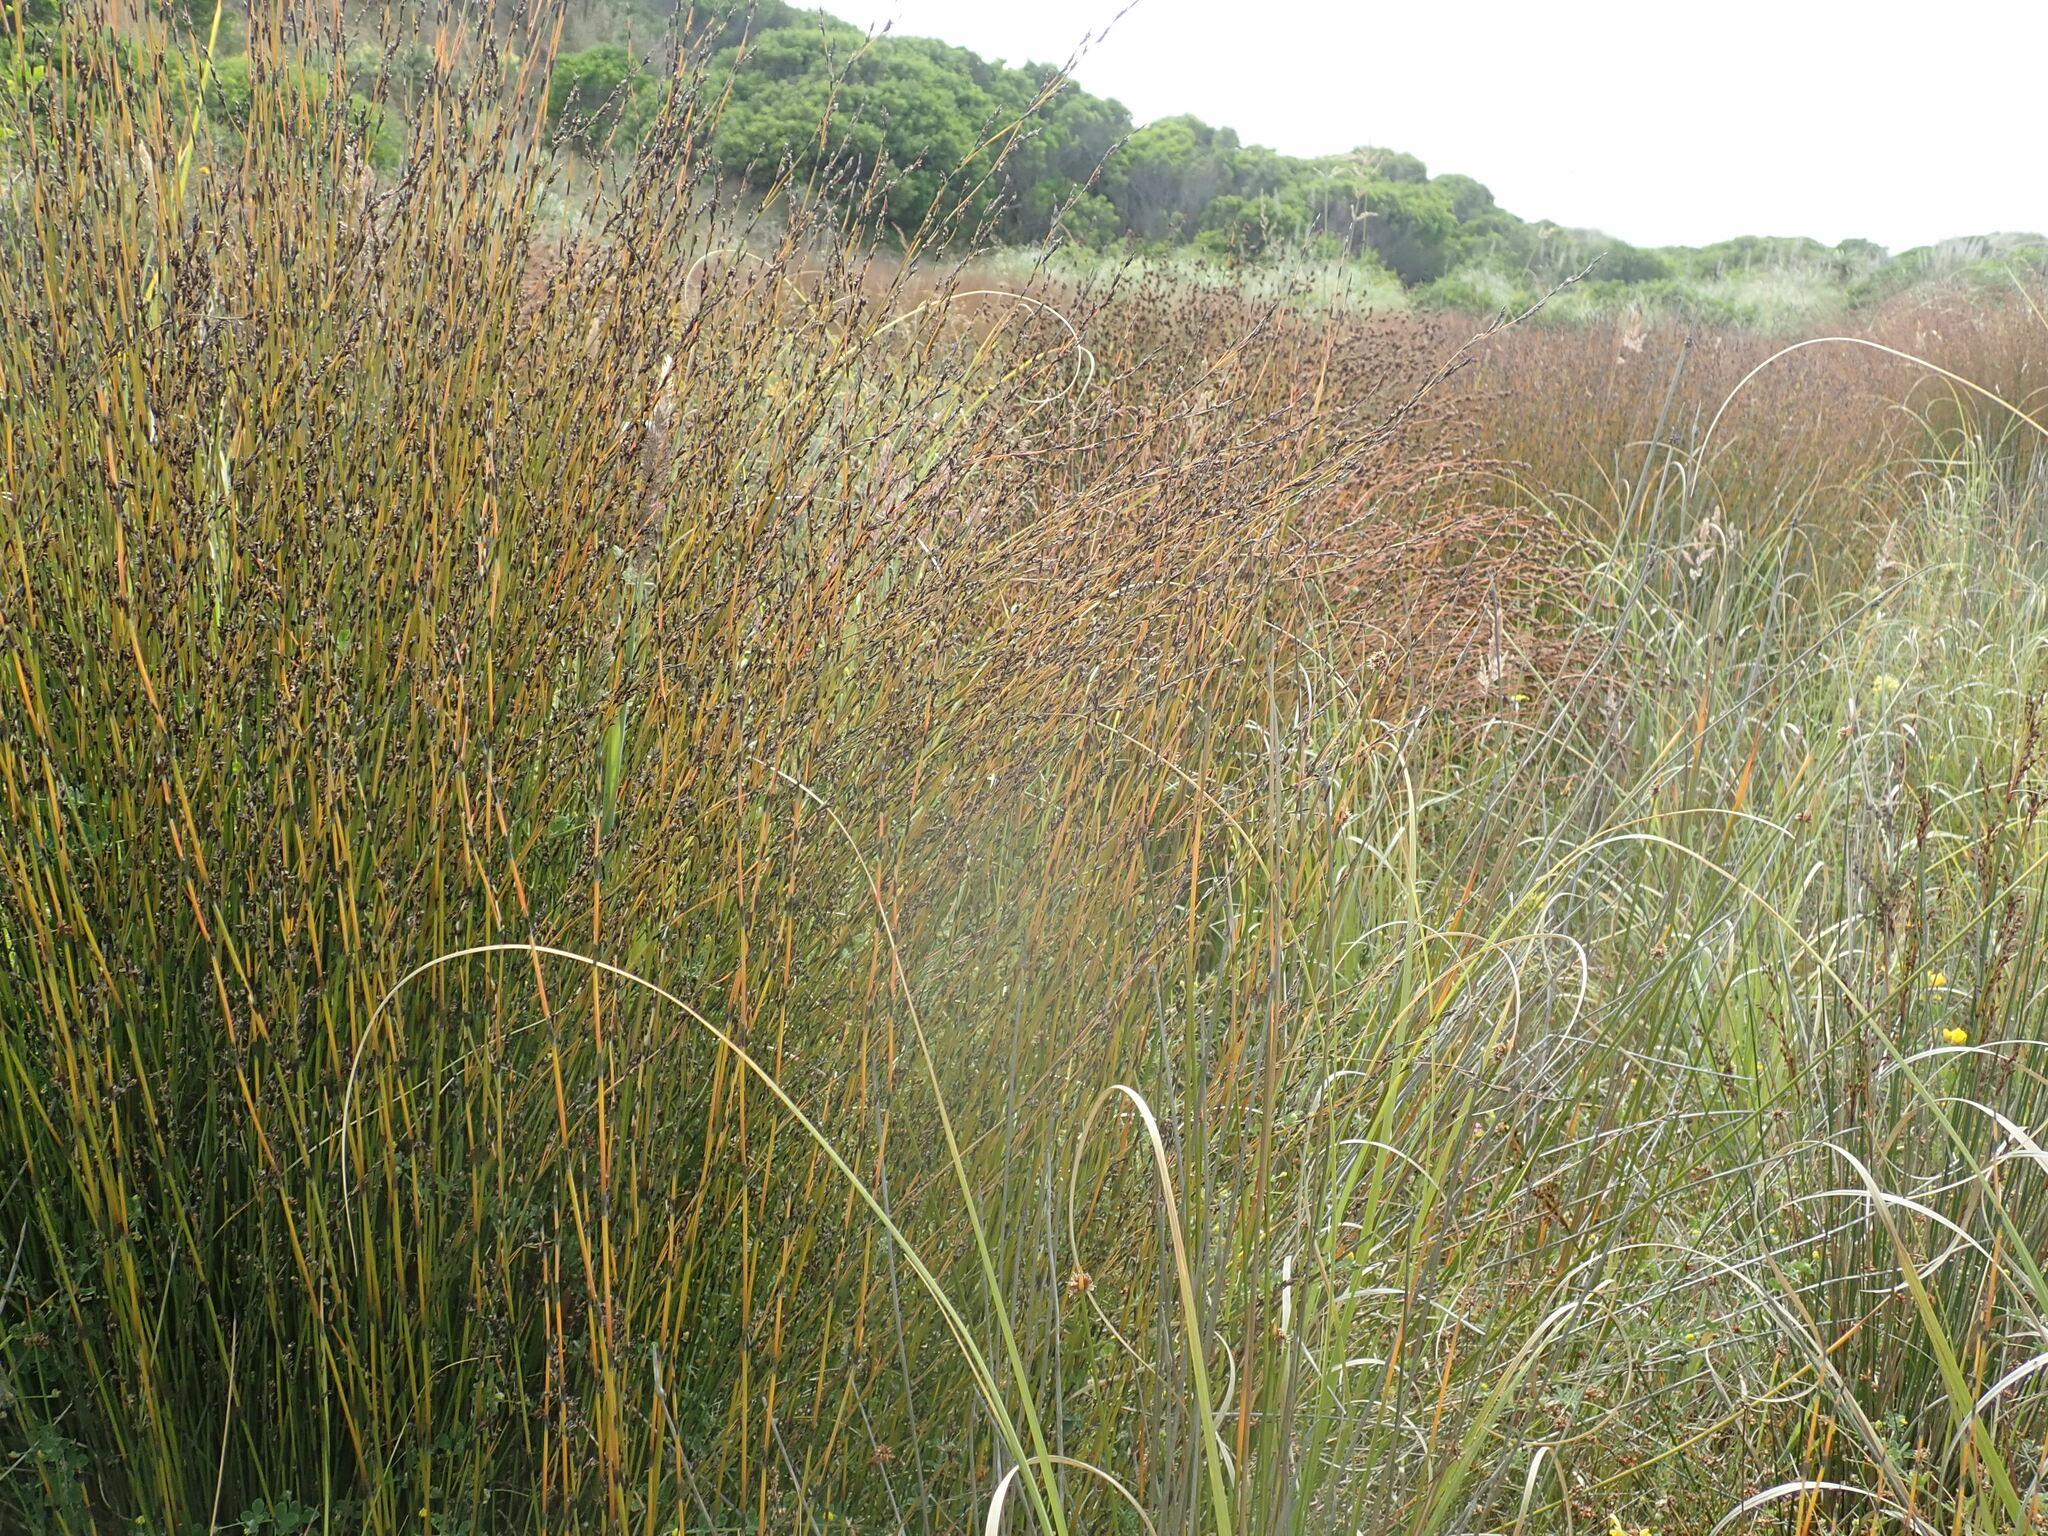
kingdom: Plantae
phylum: Tracheophyta
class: Liliopsida
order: Poales
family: Restionaceae
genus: Apodasmia
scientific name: Apodasmia similis
